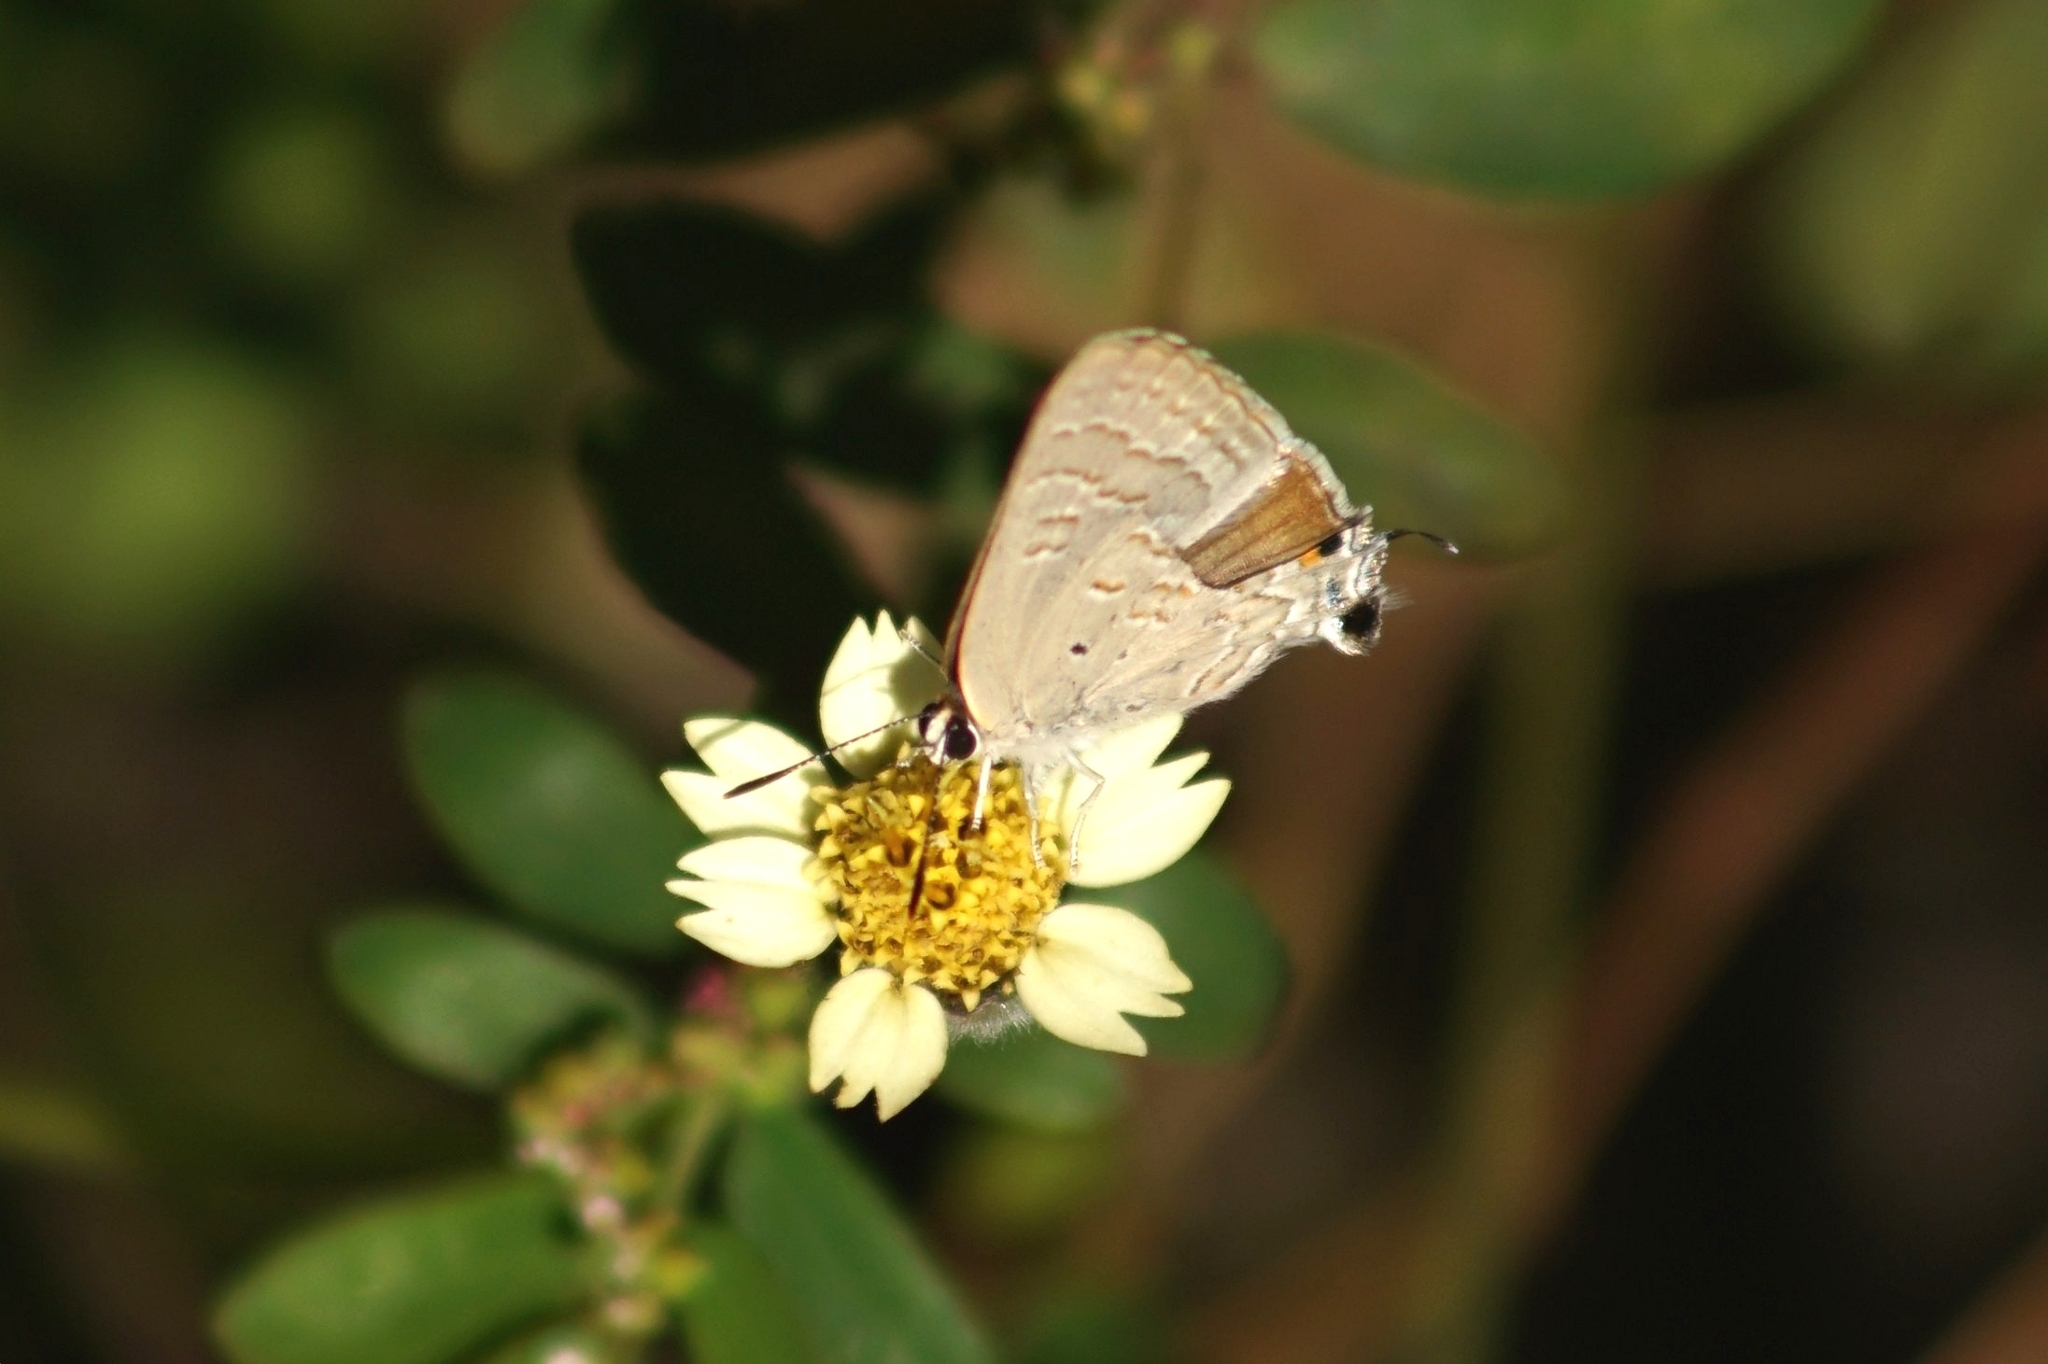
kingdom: Animalia
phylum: Arthropoda
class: Insecta
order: Lepidoptera
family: Lycaenidae
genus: Deudorix
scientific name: Deudorix antalus
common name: Brown playboy
